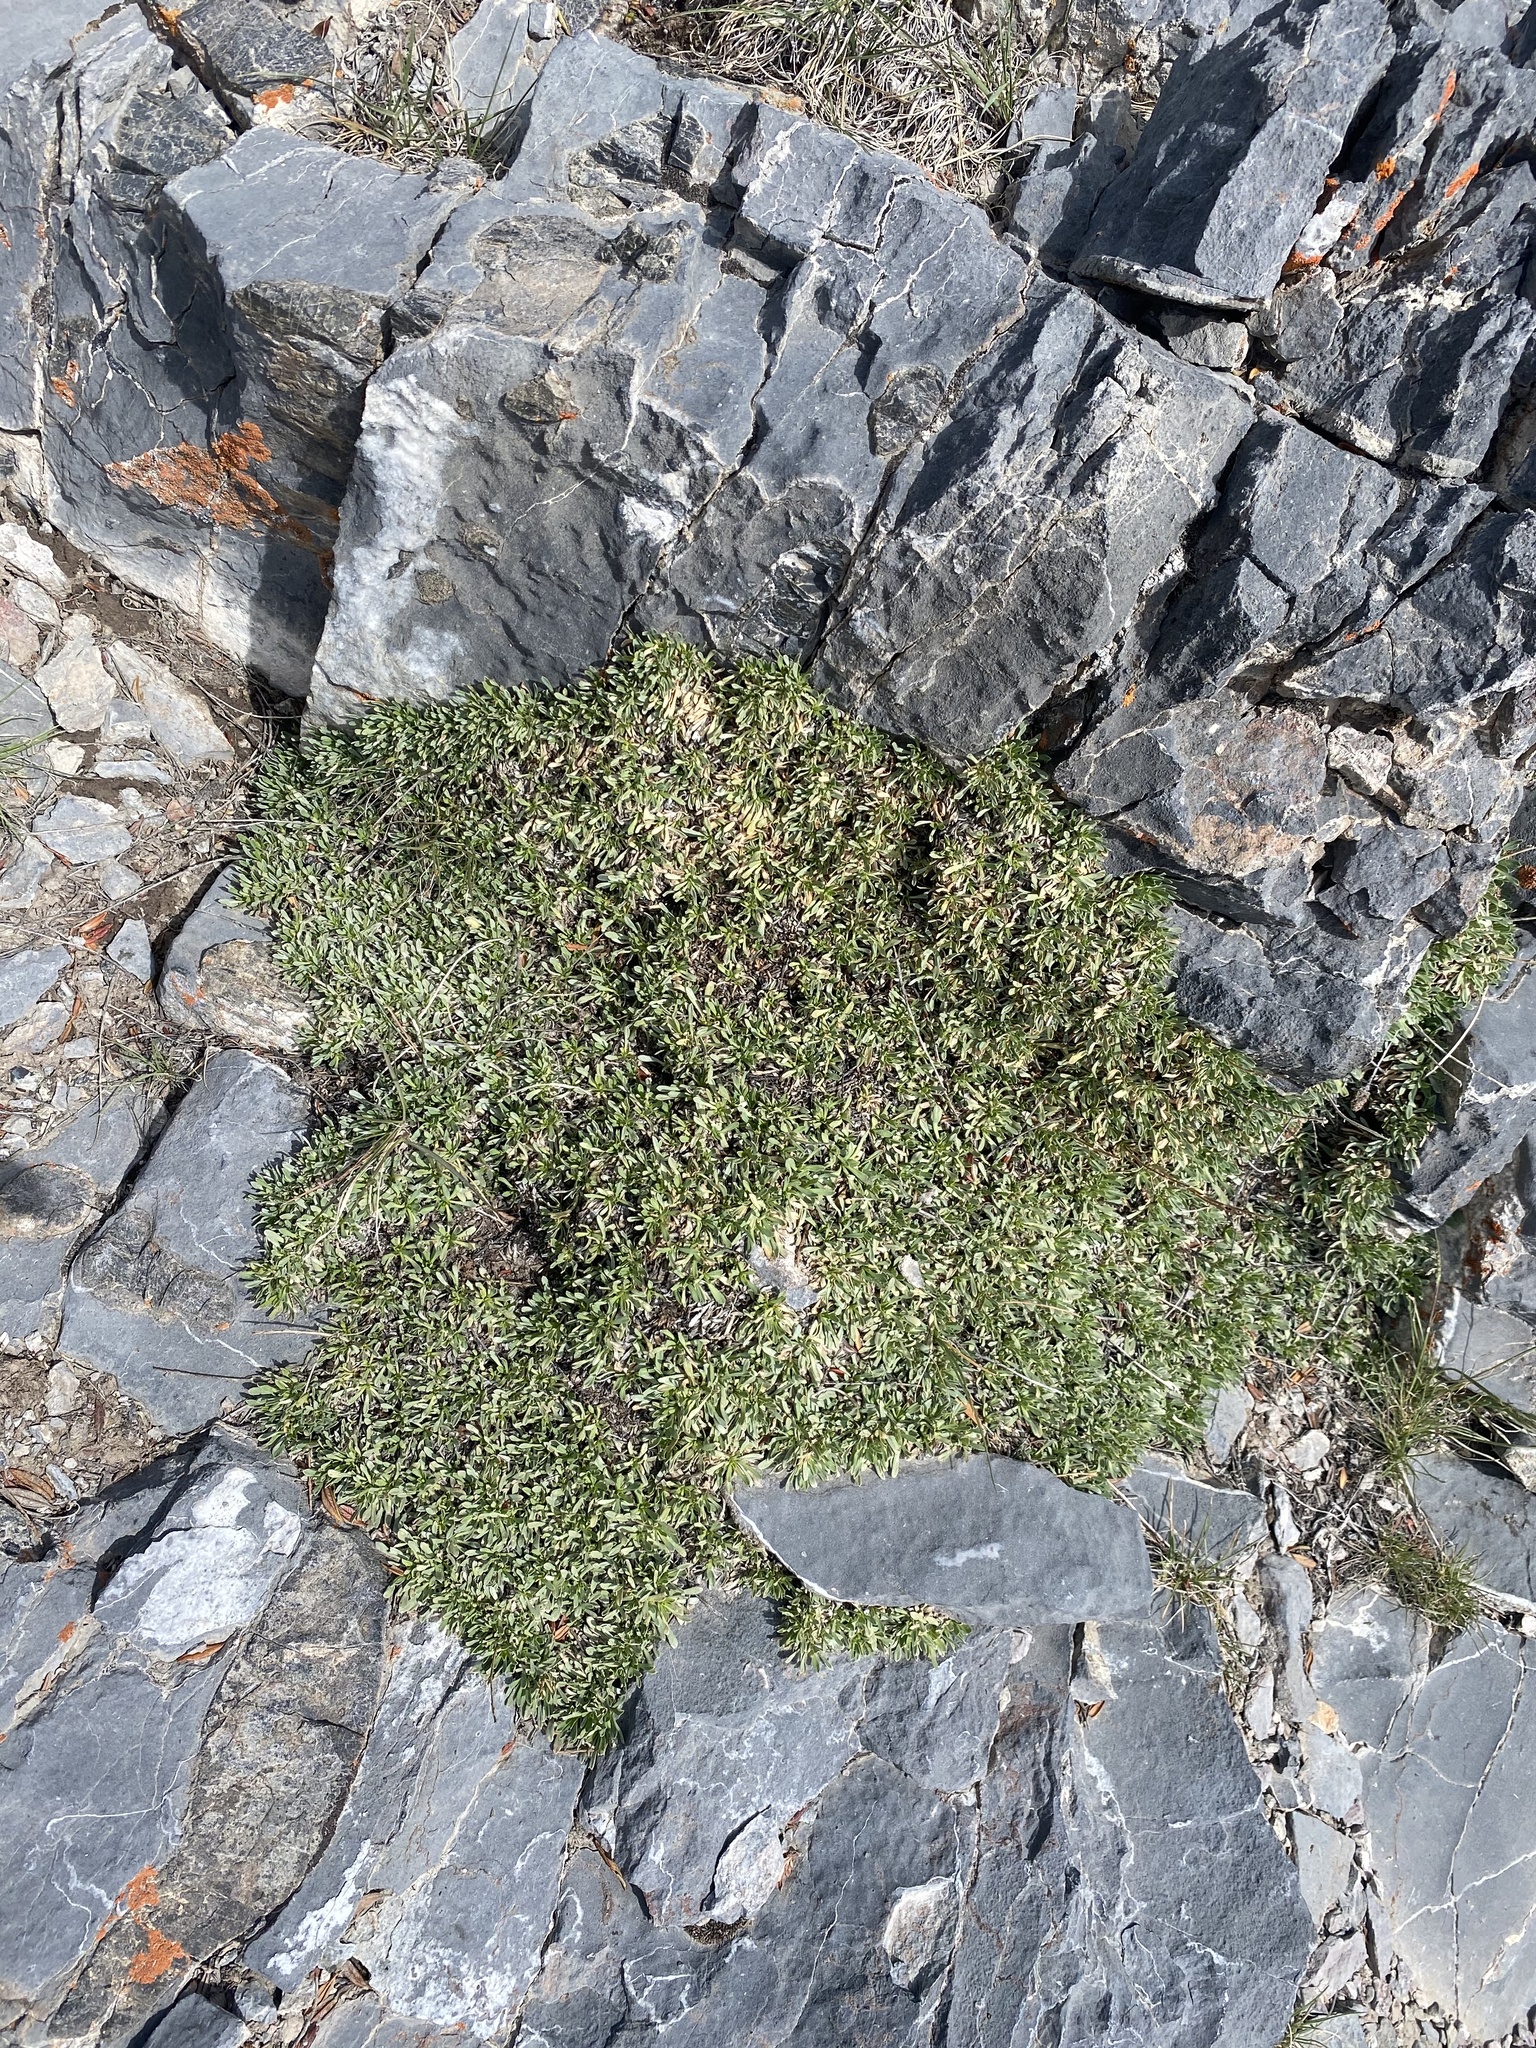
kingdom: Plantae
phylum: Tracheophyta
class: Magnoliopsida
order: Rosales
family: Rosaceae
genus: Petrophytum
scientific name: Petrophytum caespitosum
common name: Mat rockspirea
